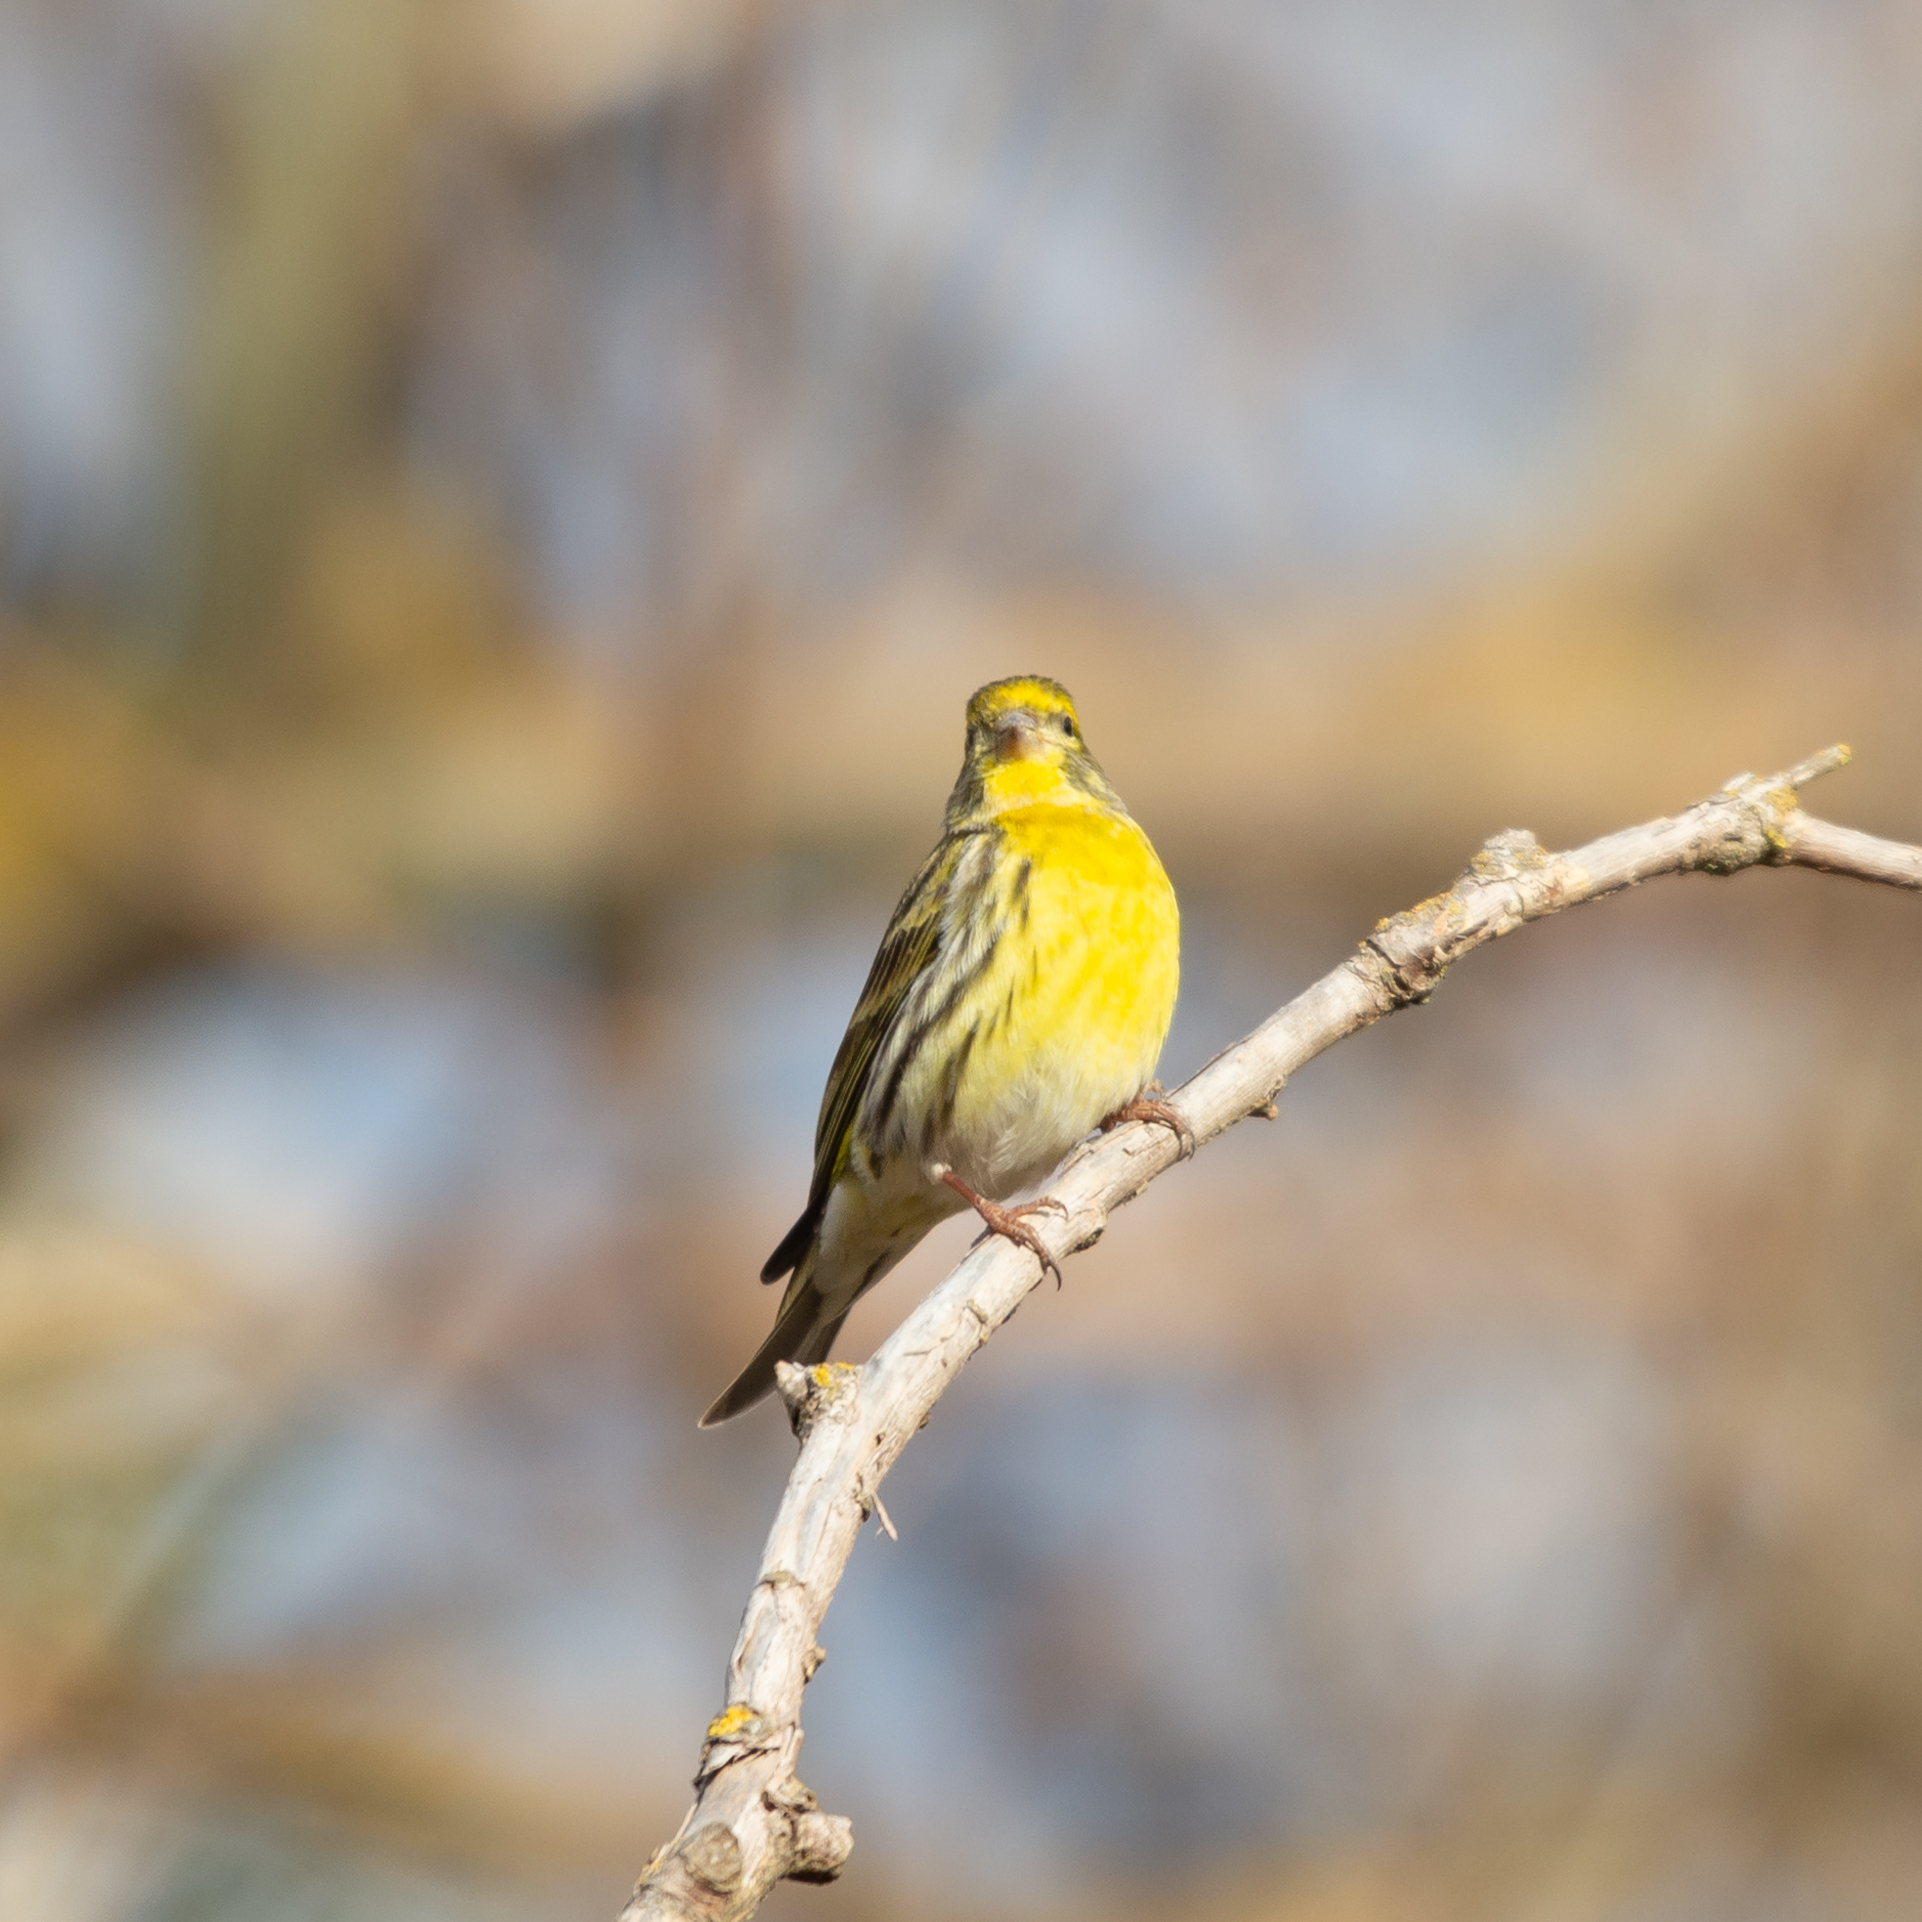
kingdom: Animalia
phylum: Chordata
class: Aves
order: Passeriformes
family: Fringillidae
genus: Serinus
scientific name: Serinus serinus
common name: European serin
